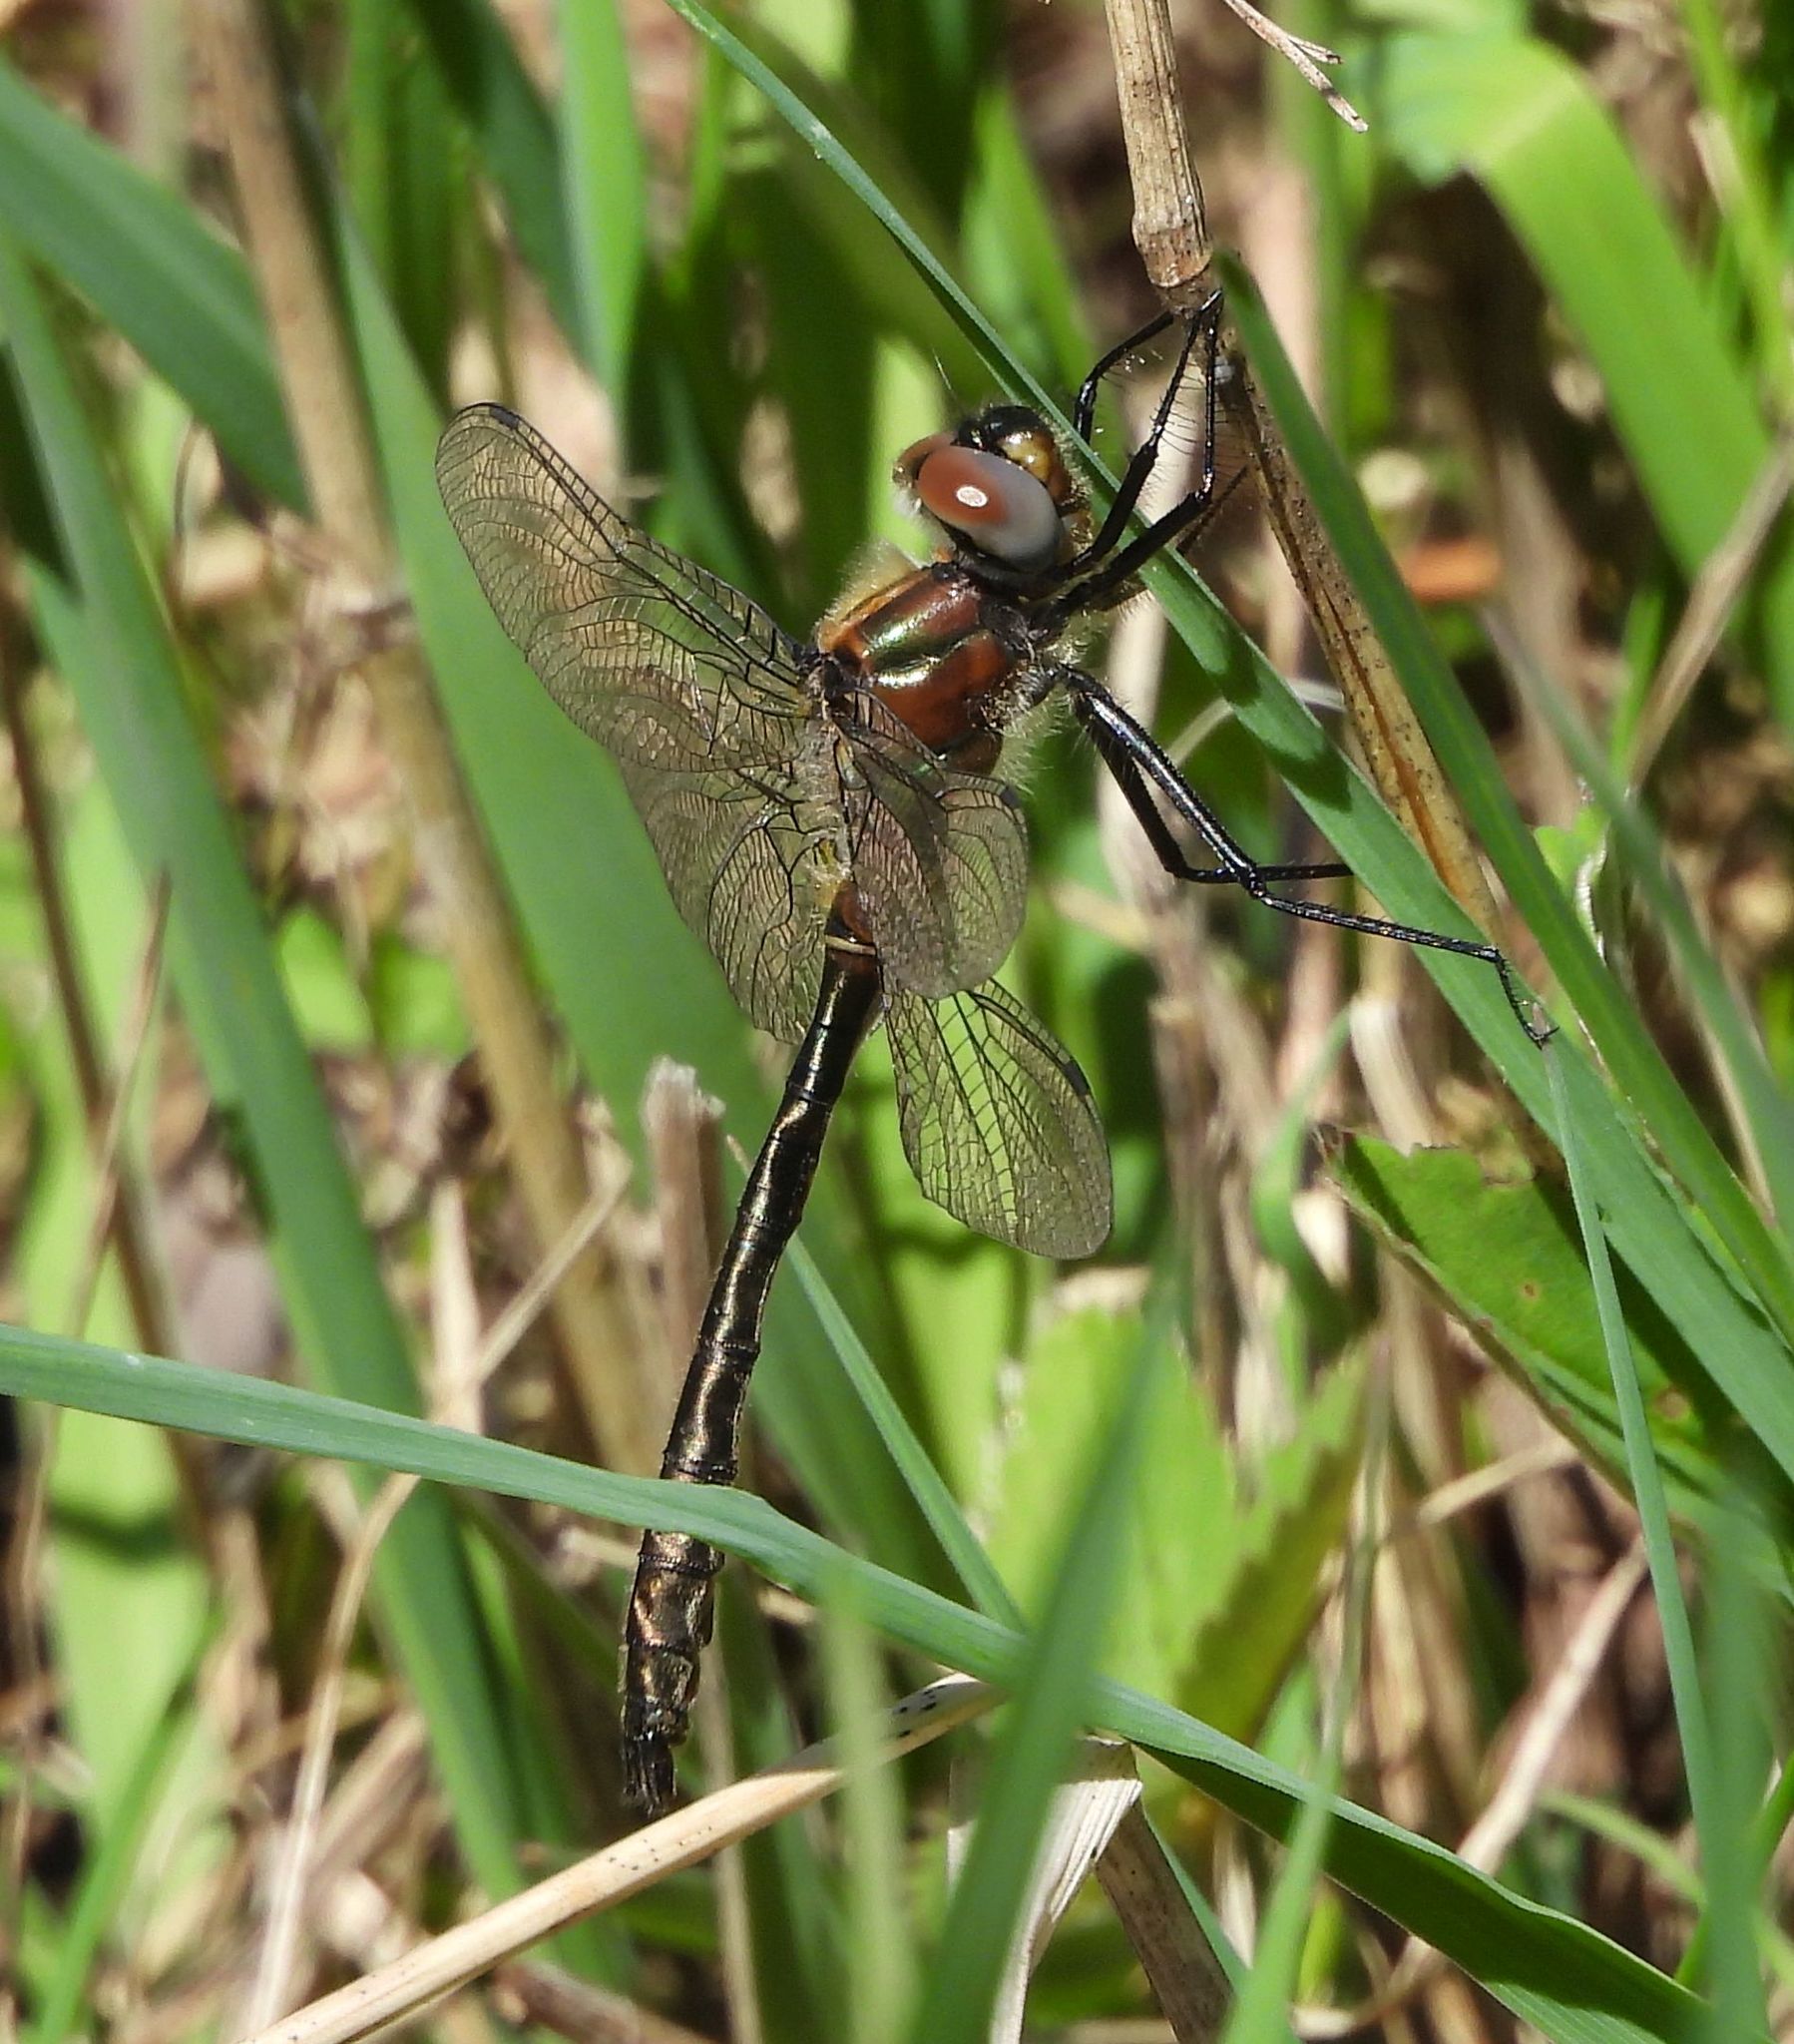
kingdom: Animalia
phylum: Arthropoda
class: Insecta
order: Odonata
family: Corduliidae
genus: Cordulia
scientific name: Cordulia shurtleffii
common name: American emerald
